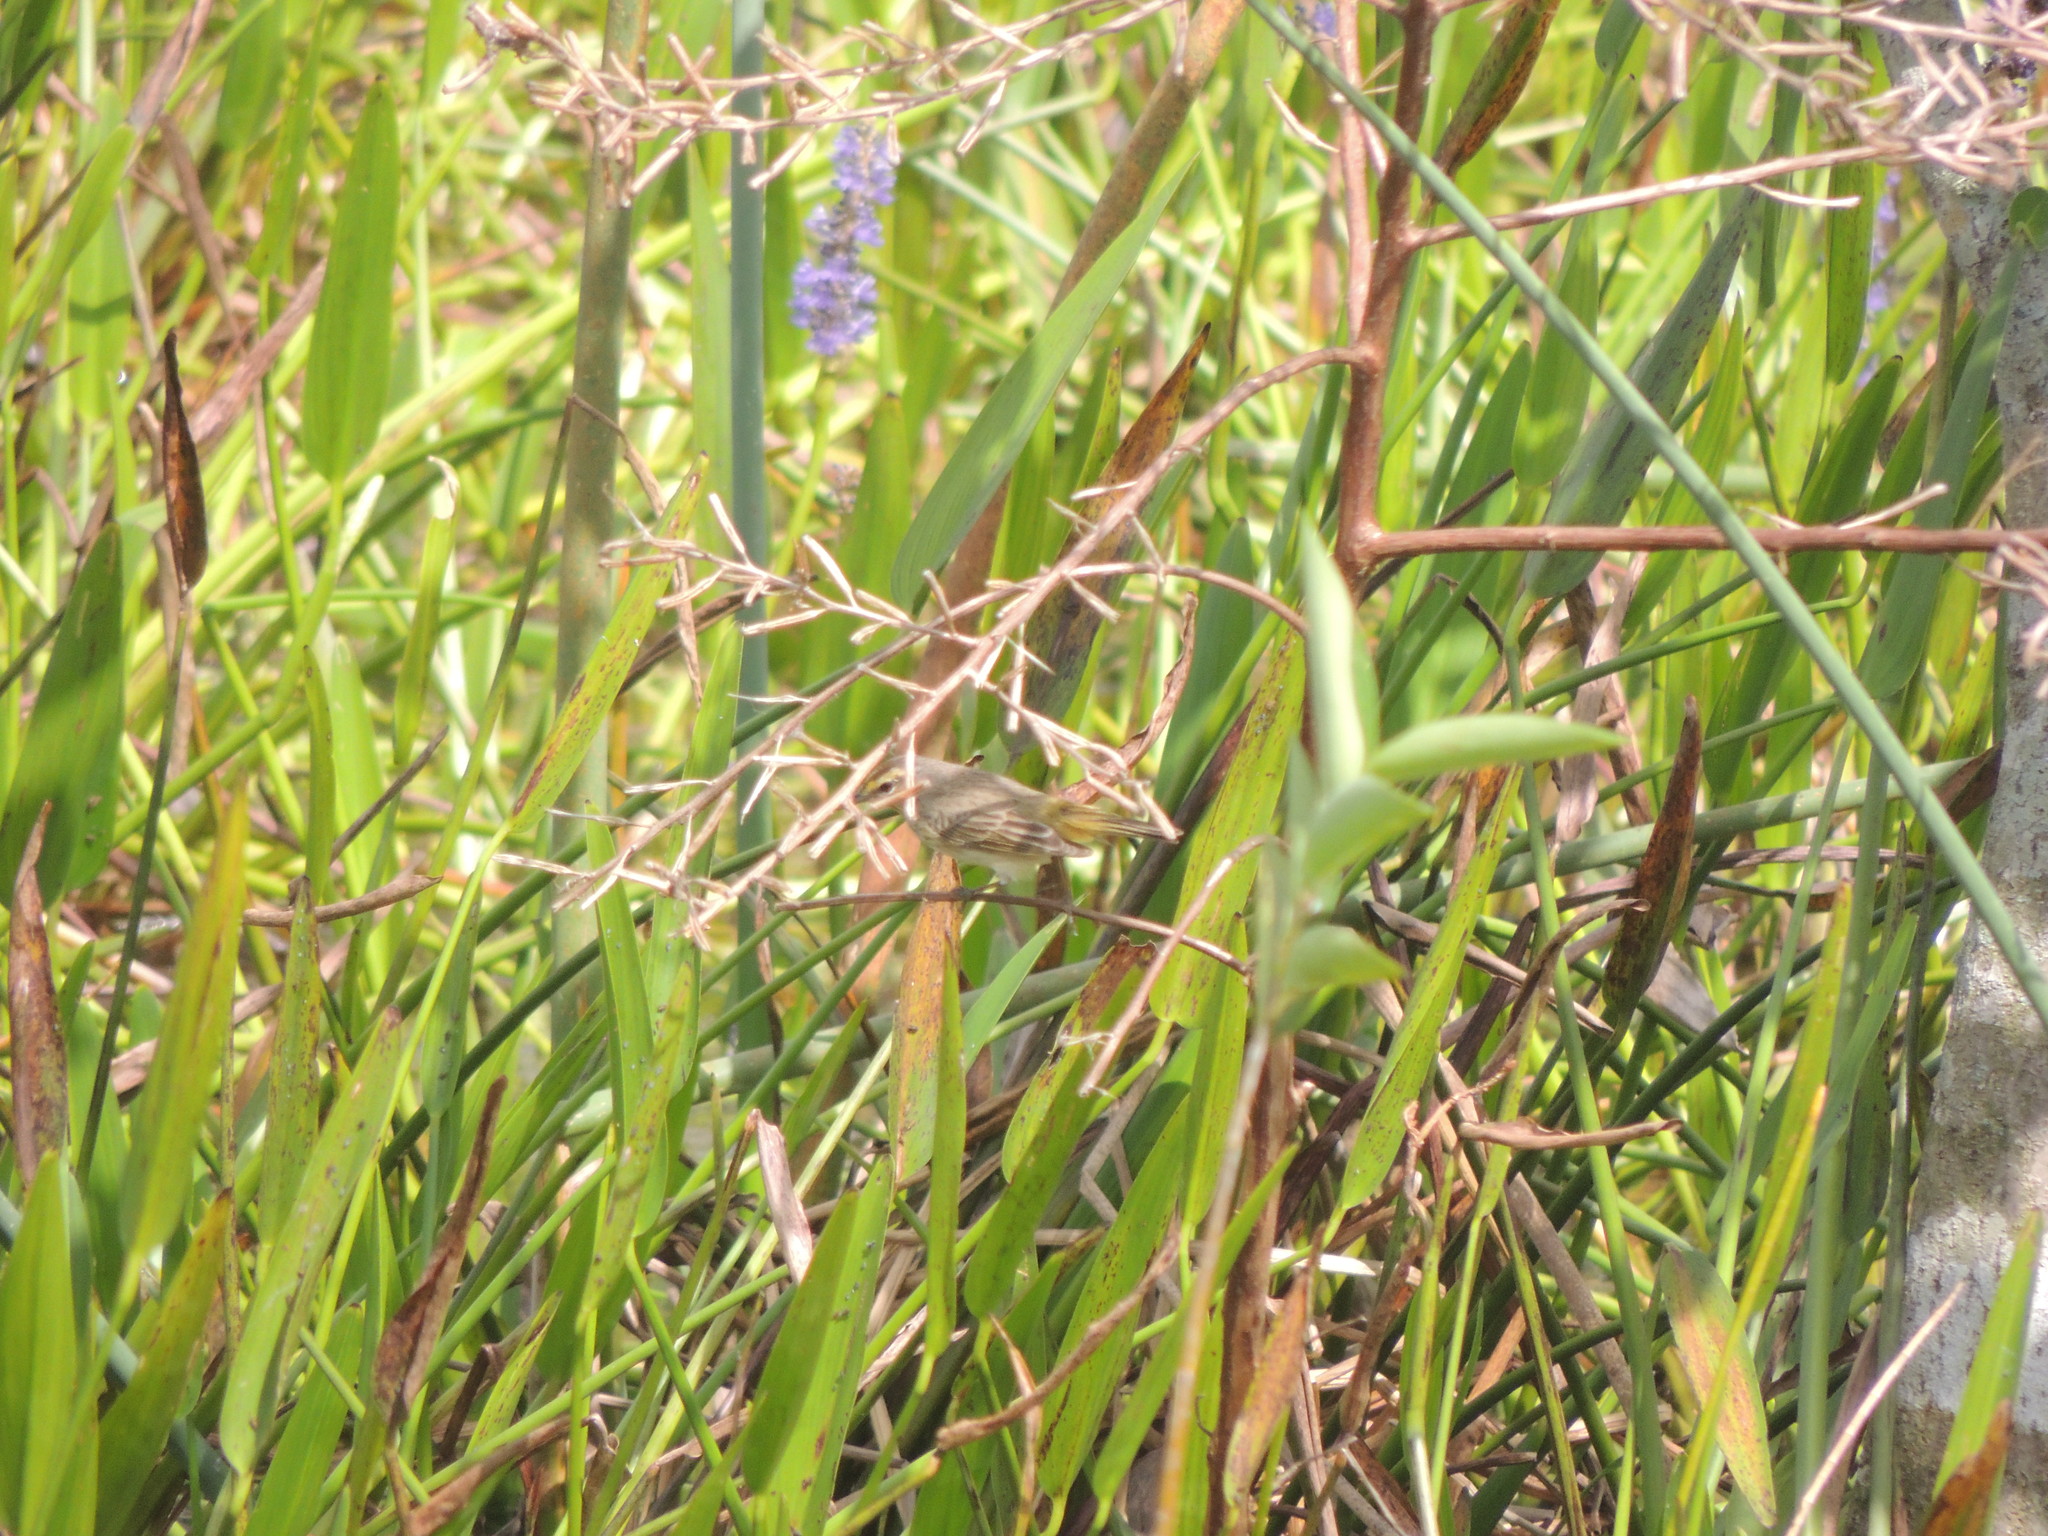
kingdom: Animalia
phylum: Chordata
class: Aves
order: Passeriformes
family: Parulidae
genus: Setophaga
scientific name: Setophaga palmarum
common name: Palm warbler
